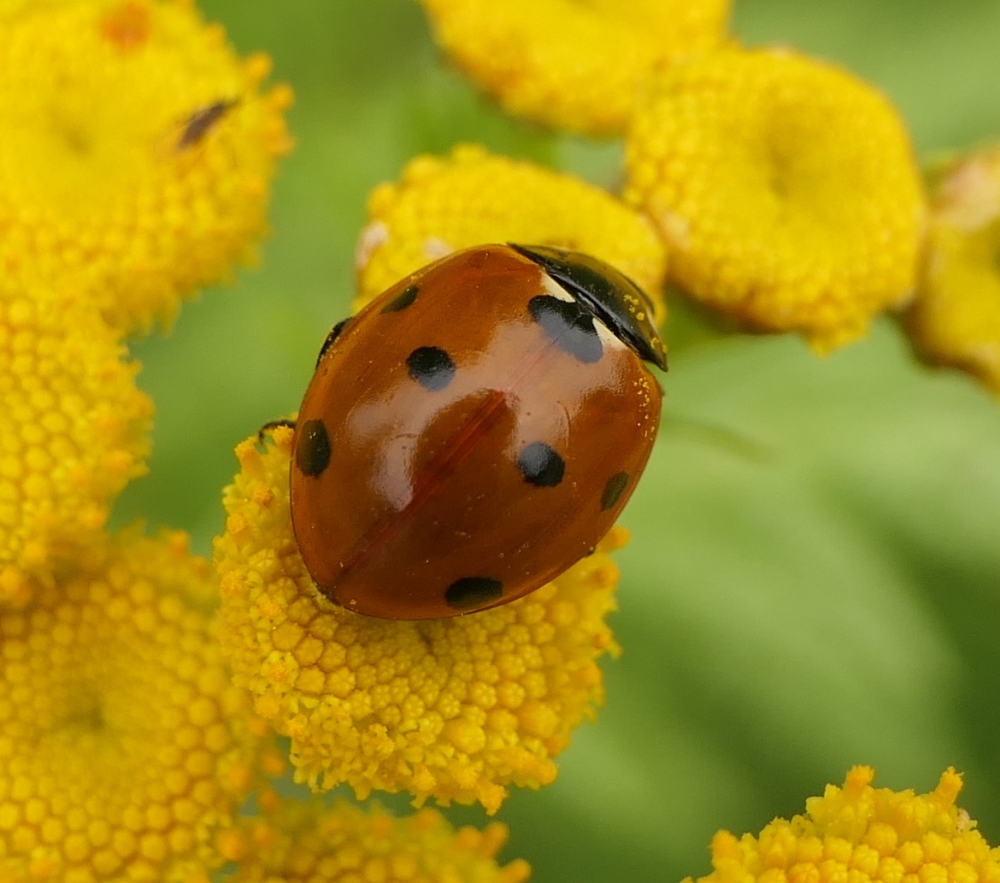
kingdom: Animalia
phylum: Arthropoda
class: Insecta
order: Coleoptera
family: Coccinellidae
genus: Coccinella
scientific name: Coccinella septempunctata
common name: Sevenspotted lady beetle
